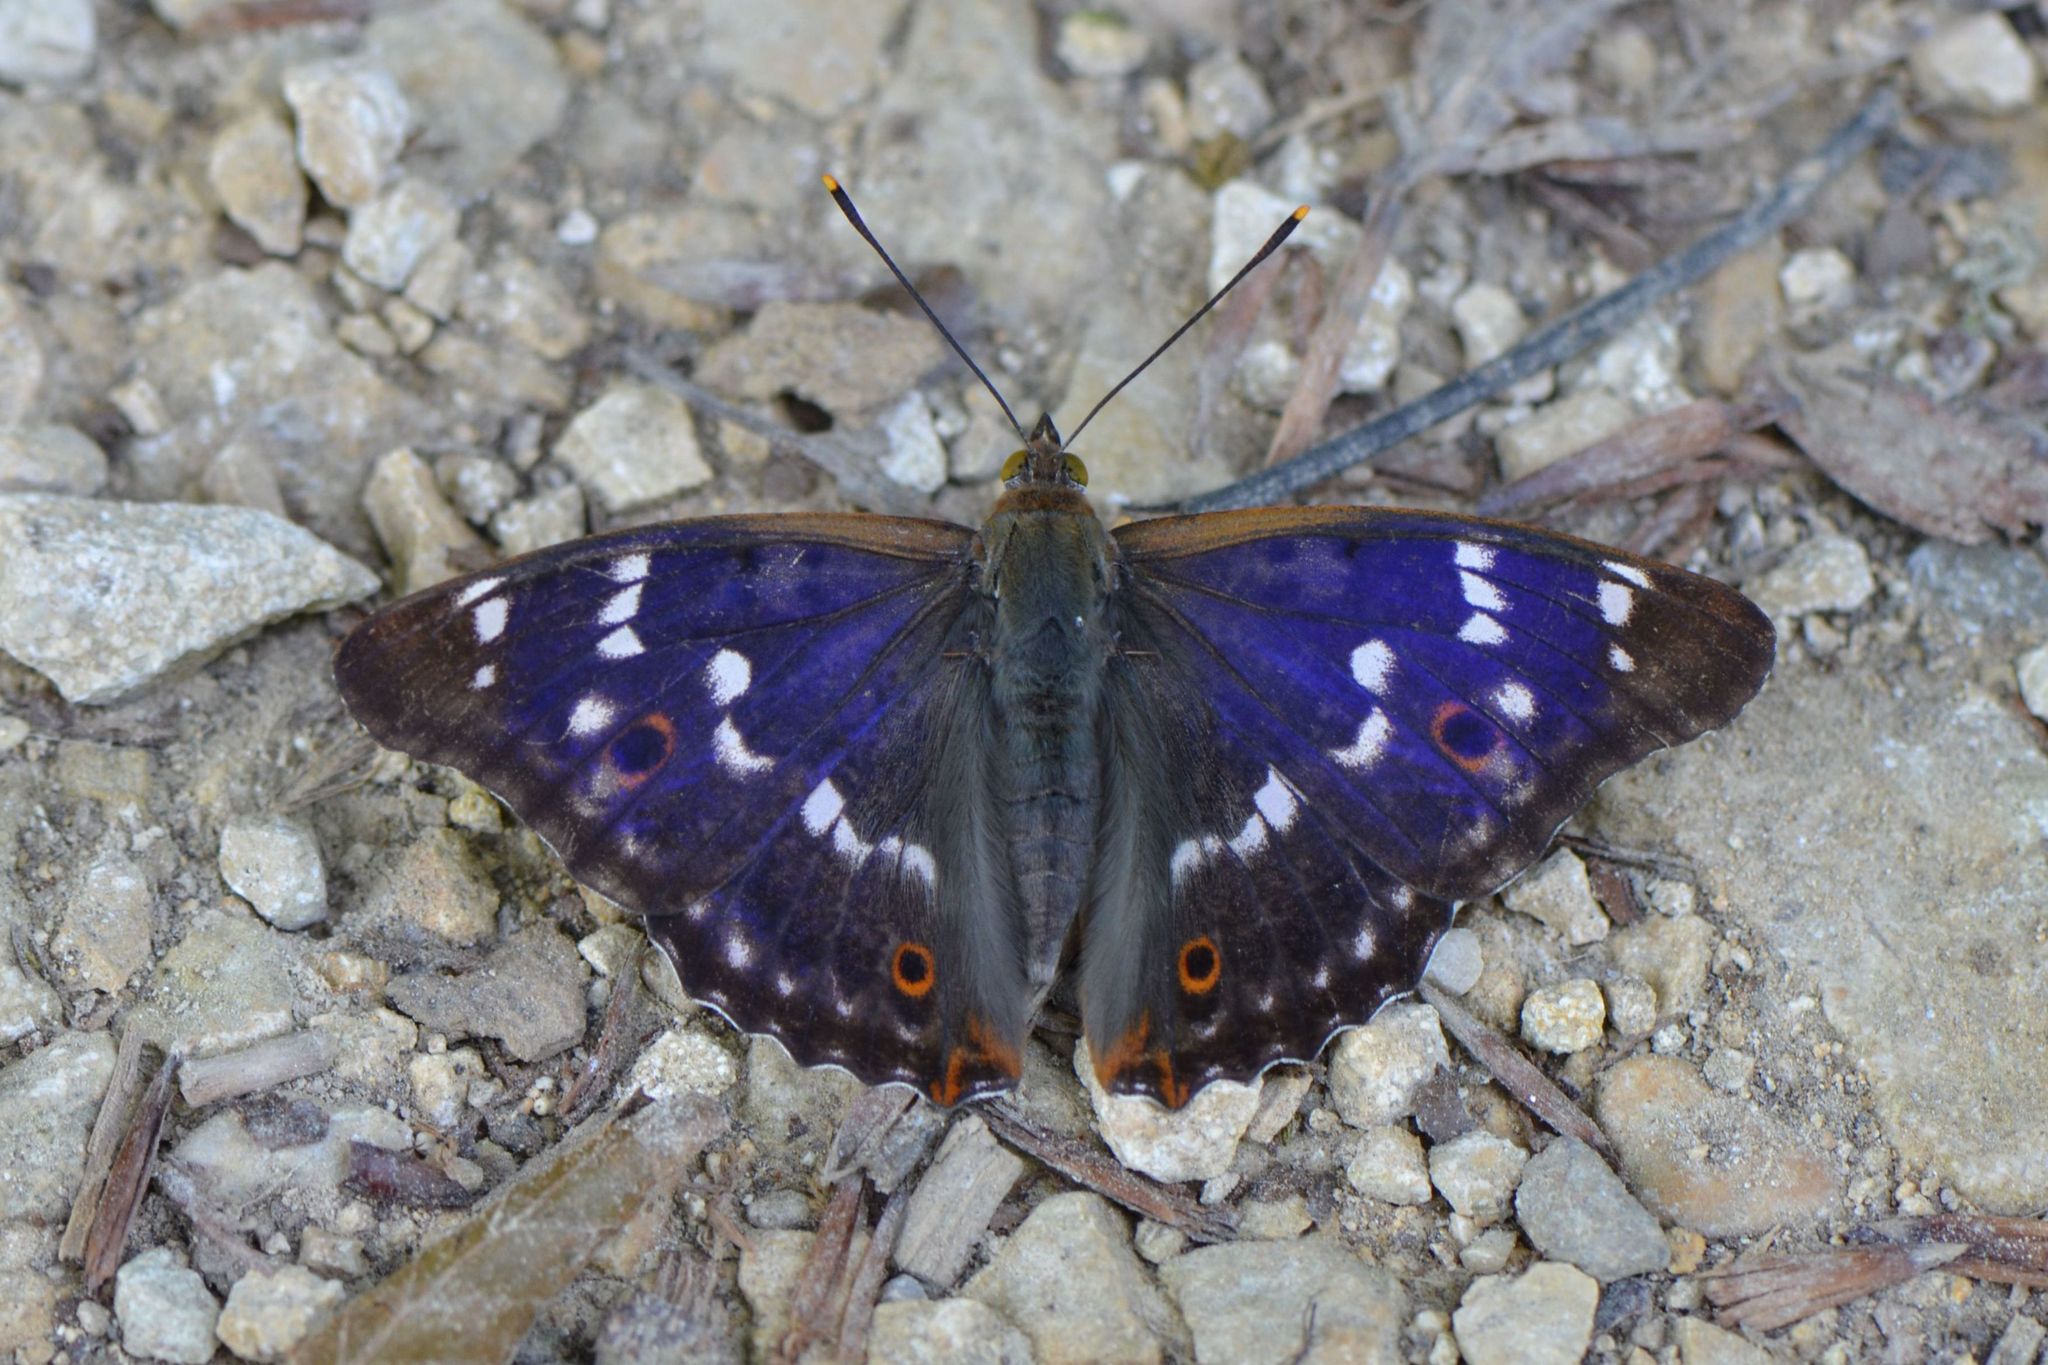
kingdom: Animalia
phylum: Arthropoda
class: Insecta
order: Lepidoptera
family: Nymphalidae
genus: Apatura
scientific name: Apatura ilia
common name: Lesser purple emperor
